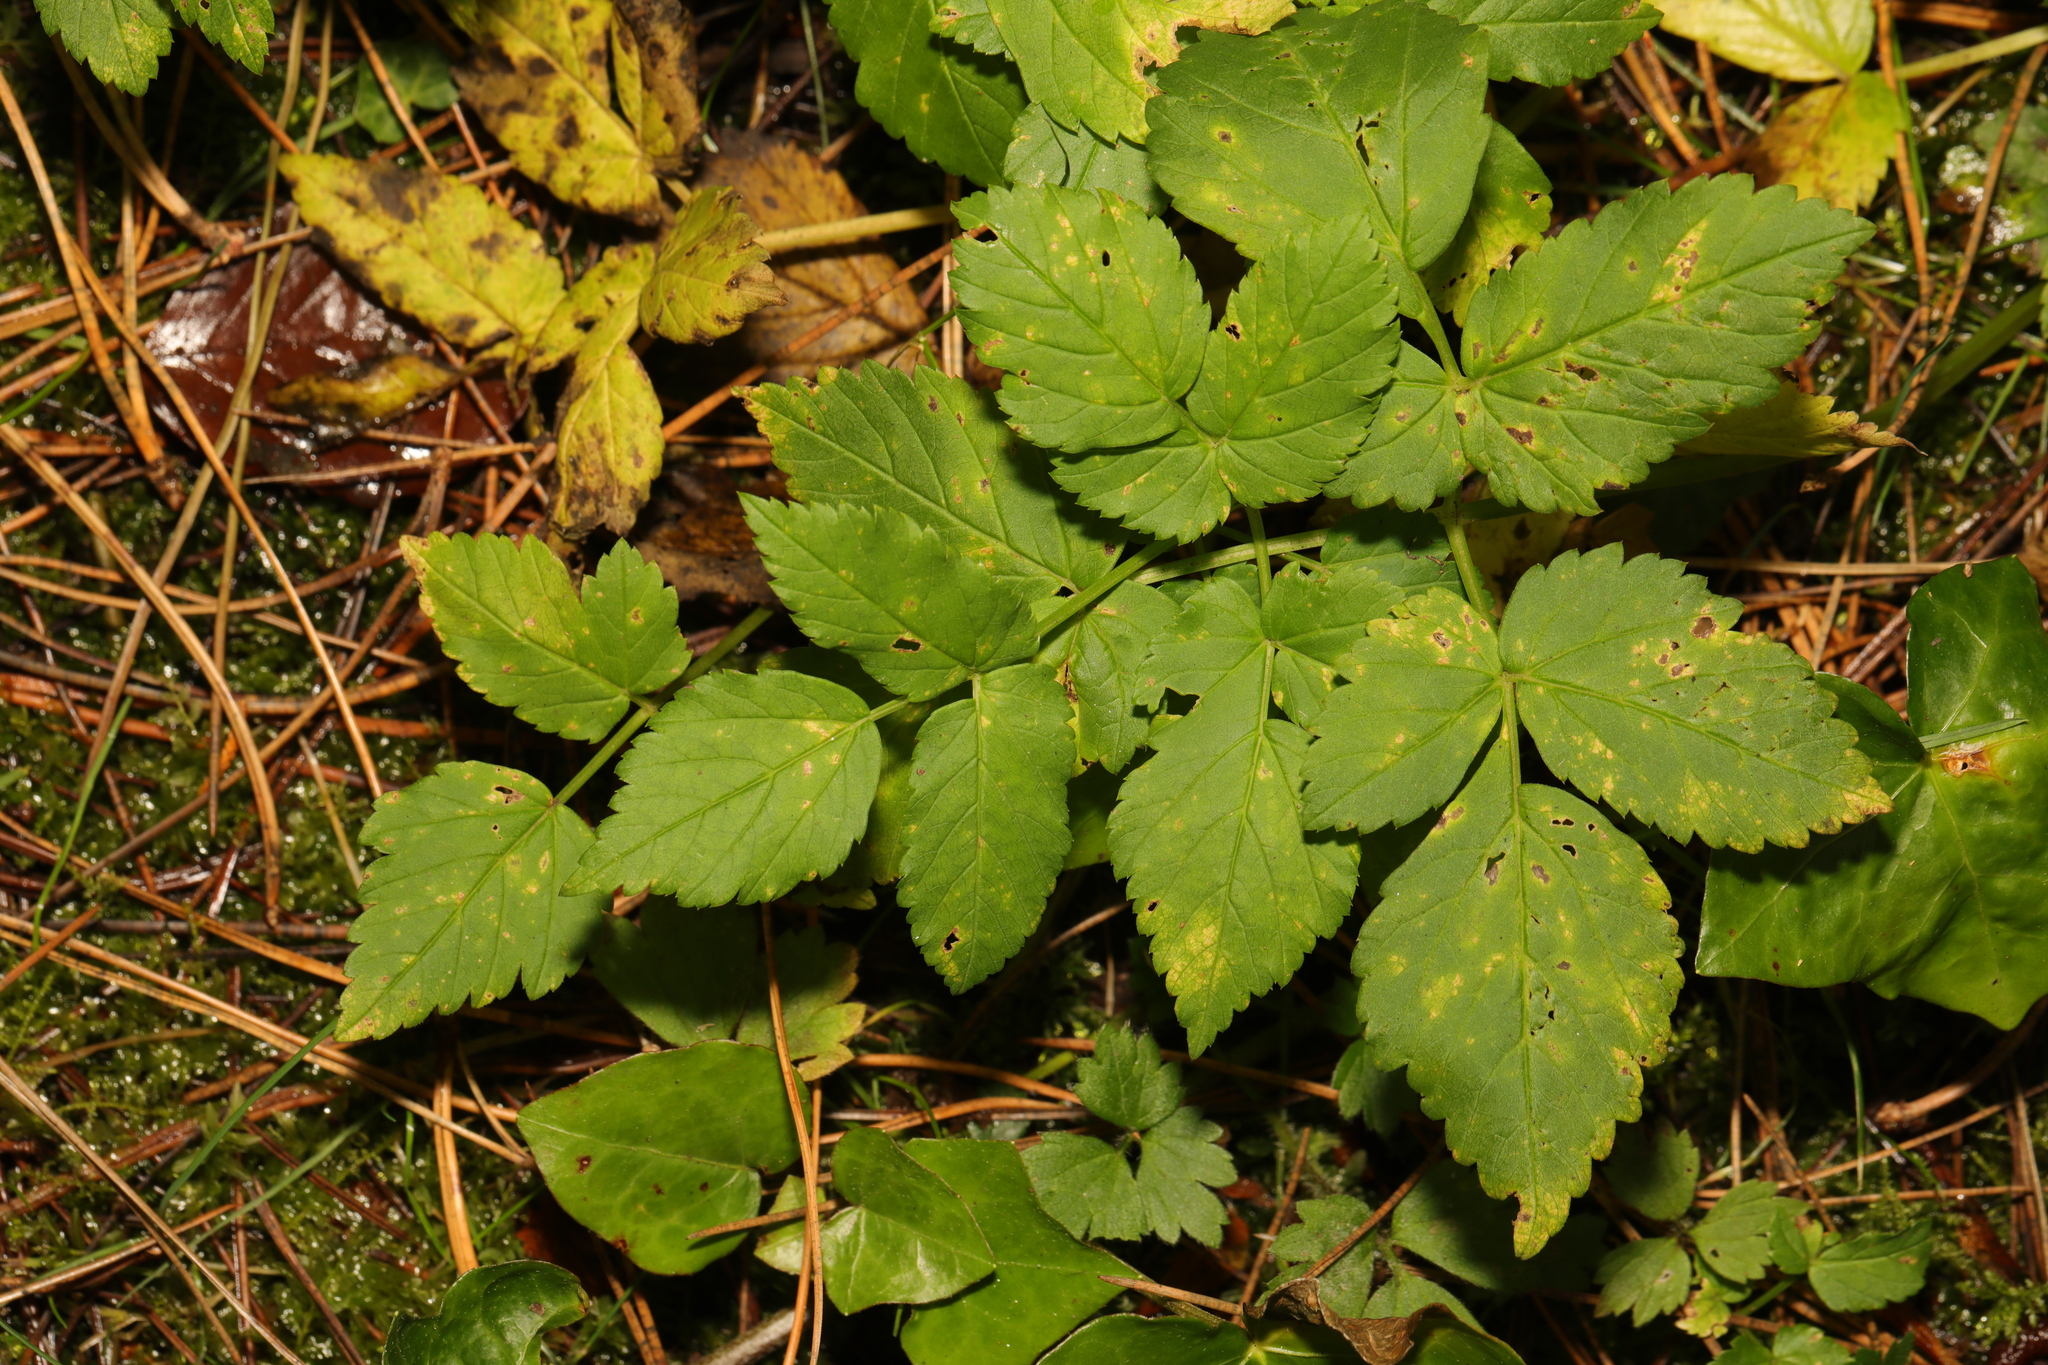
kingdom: Plantae
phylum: Tracheophyta
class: Magnoliopsida
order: Apiales
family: Apiaceae
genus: Aegopodium
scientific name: Aegopodium podagraria
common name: Ground-elder
